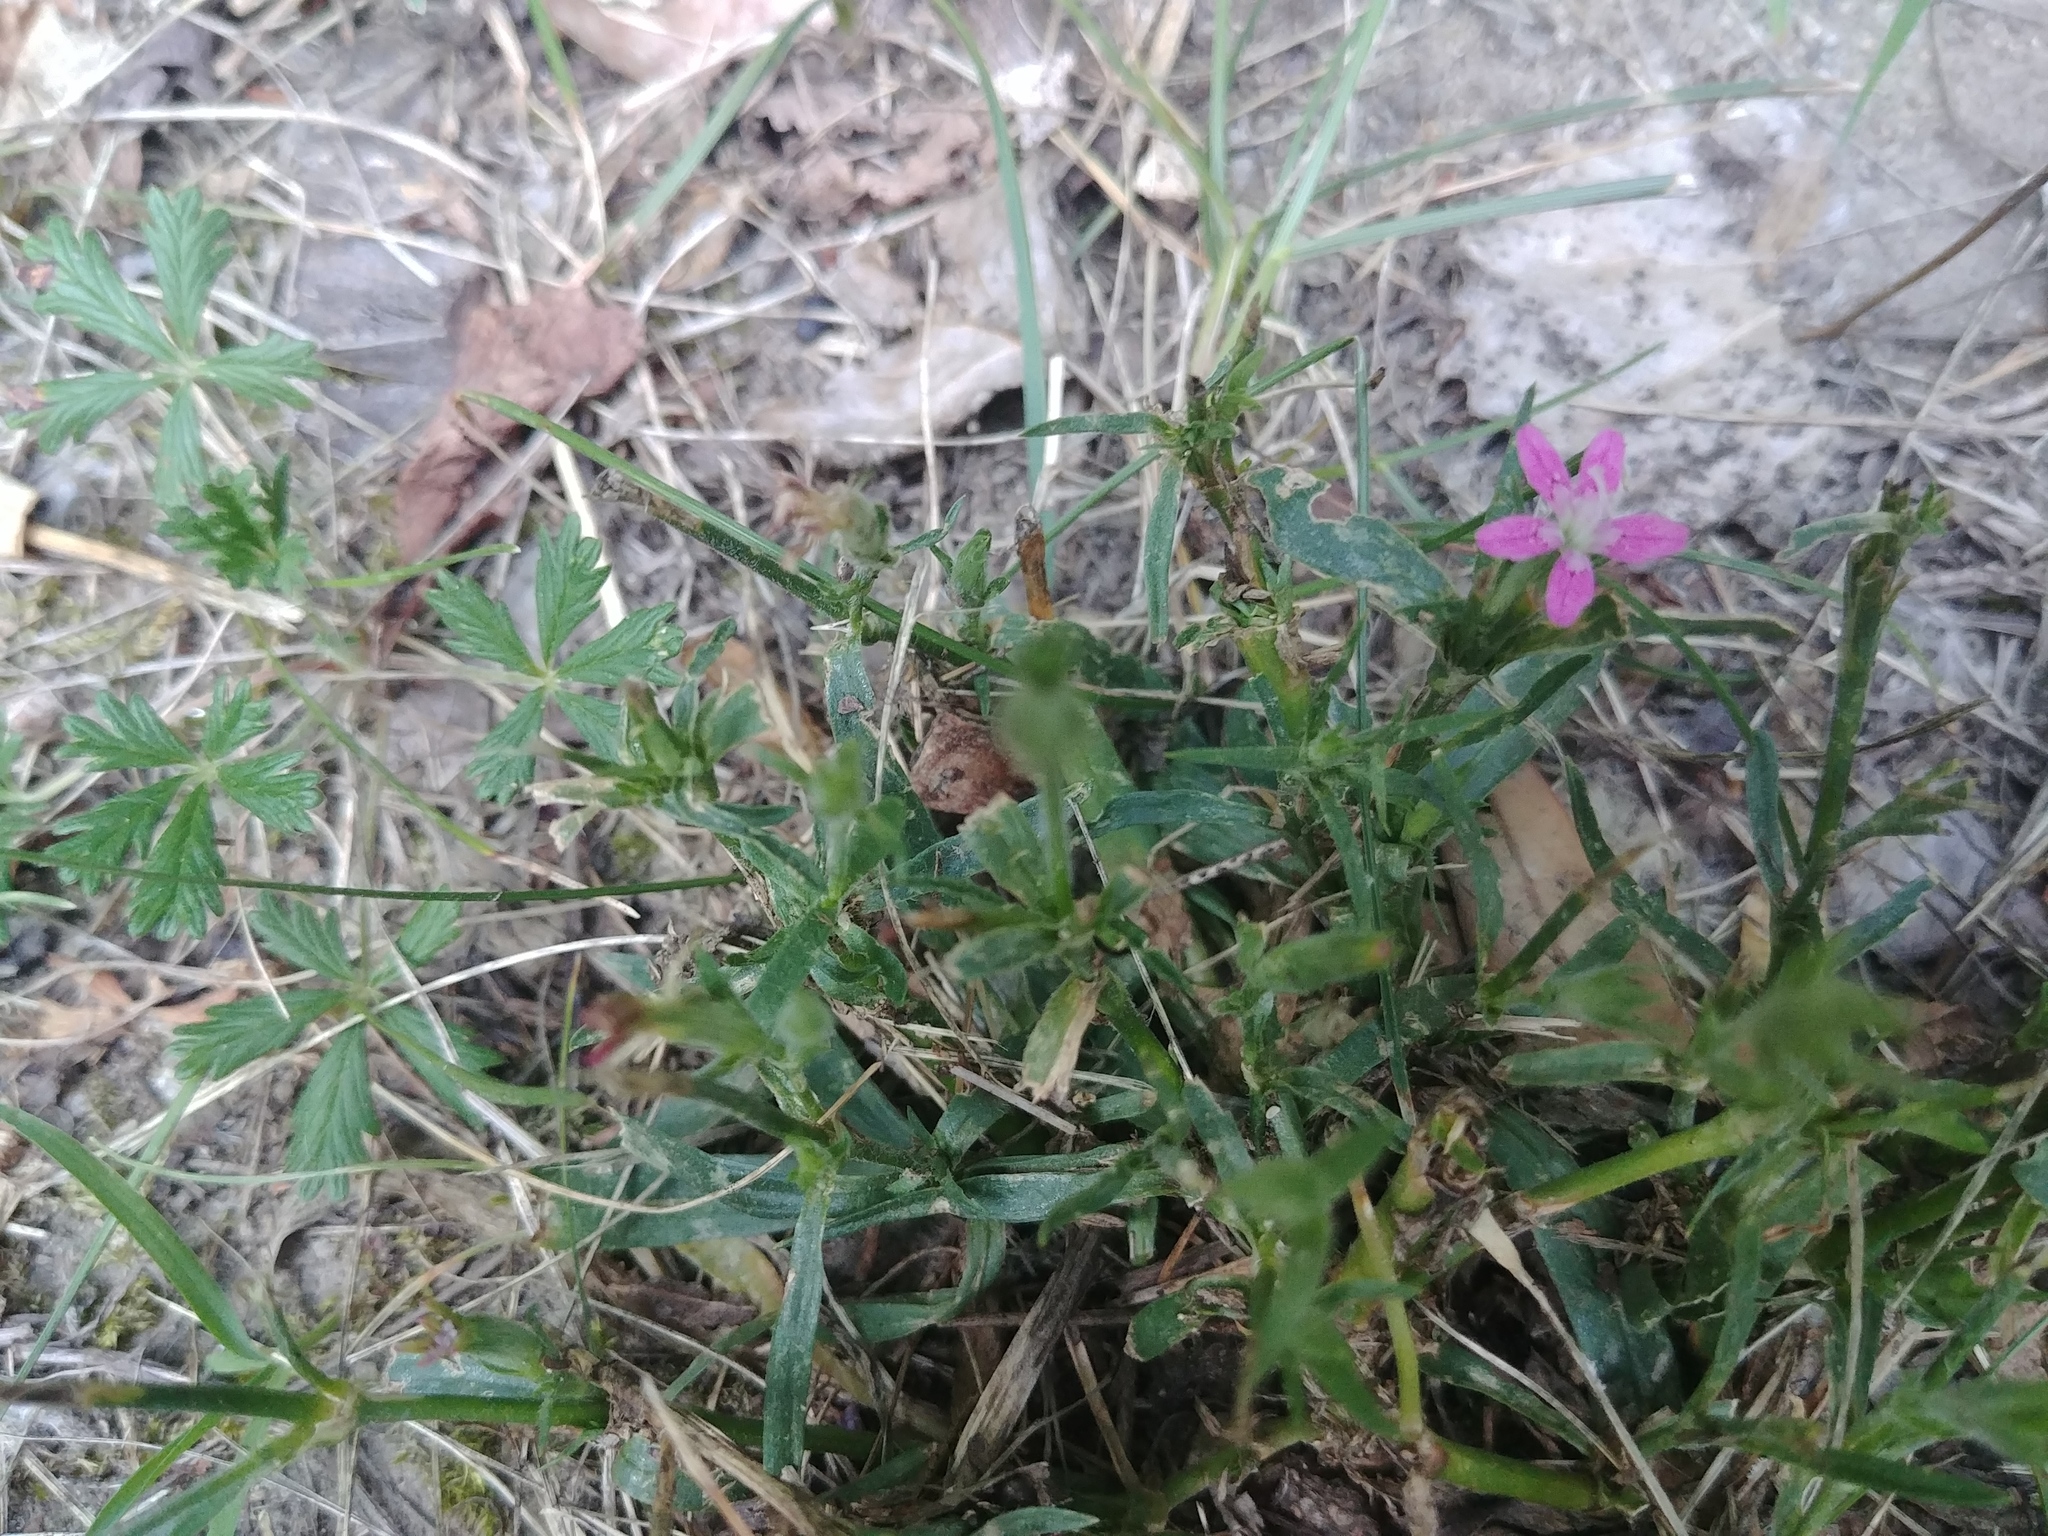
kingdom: Plantae
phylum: Tracheophyta
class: Magnoliopsida
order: Caryophyllales
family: Caryophyllaceae
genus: Dianthus
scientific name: Dianthus armeria
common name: Deptford pink
